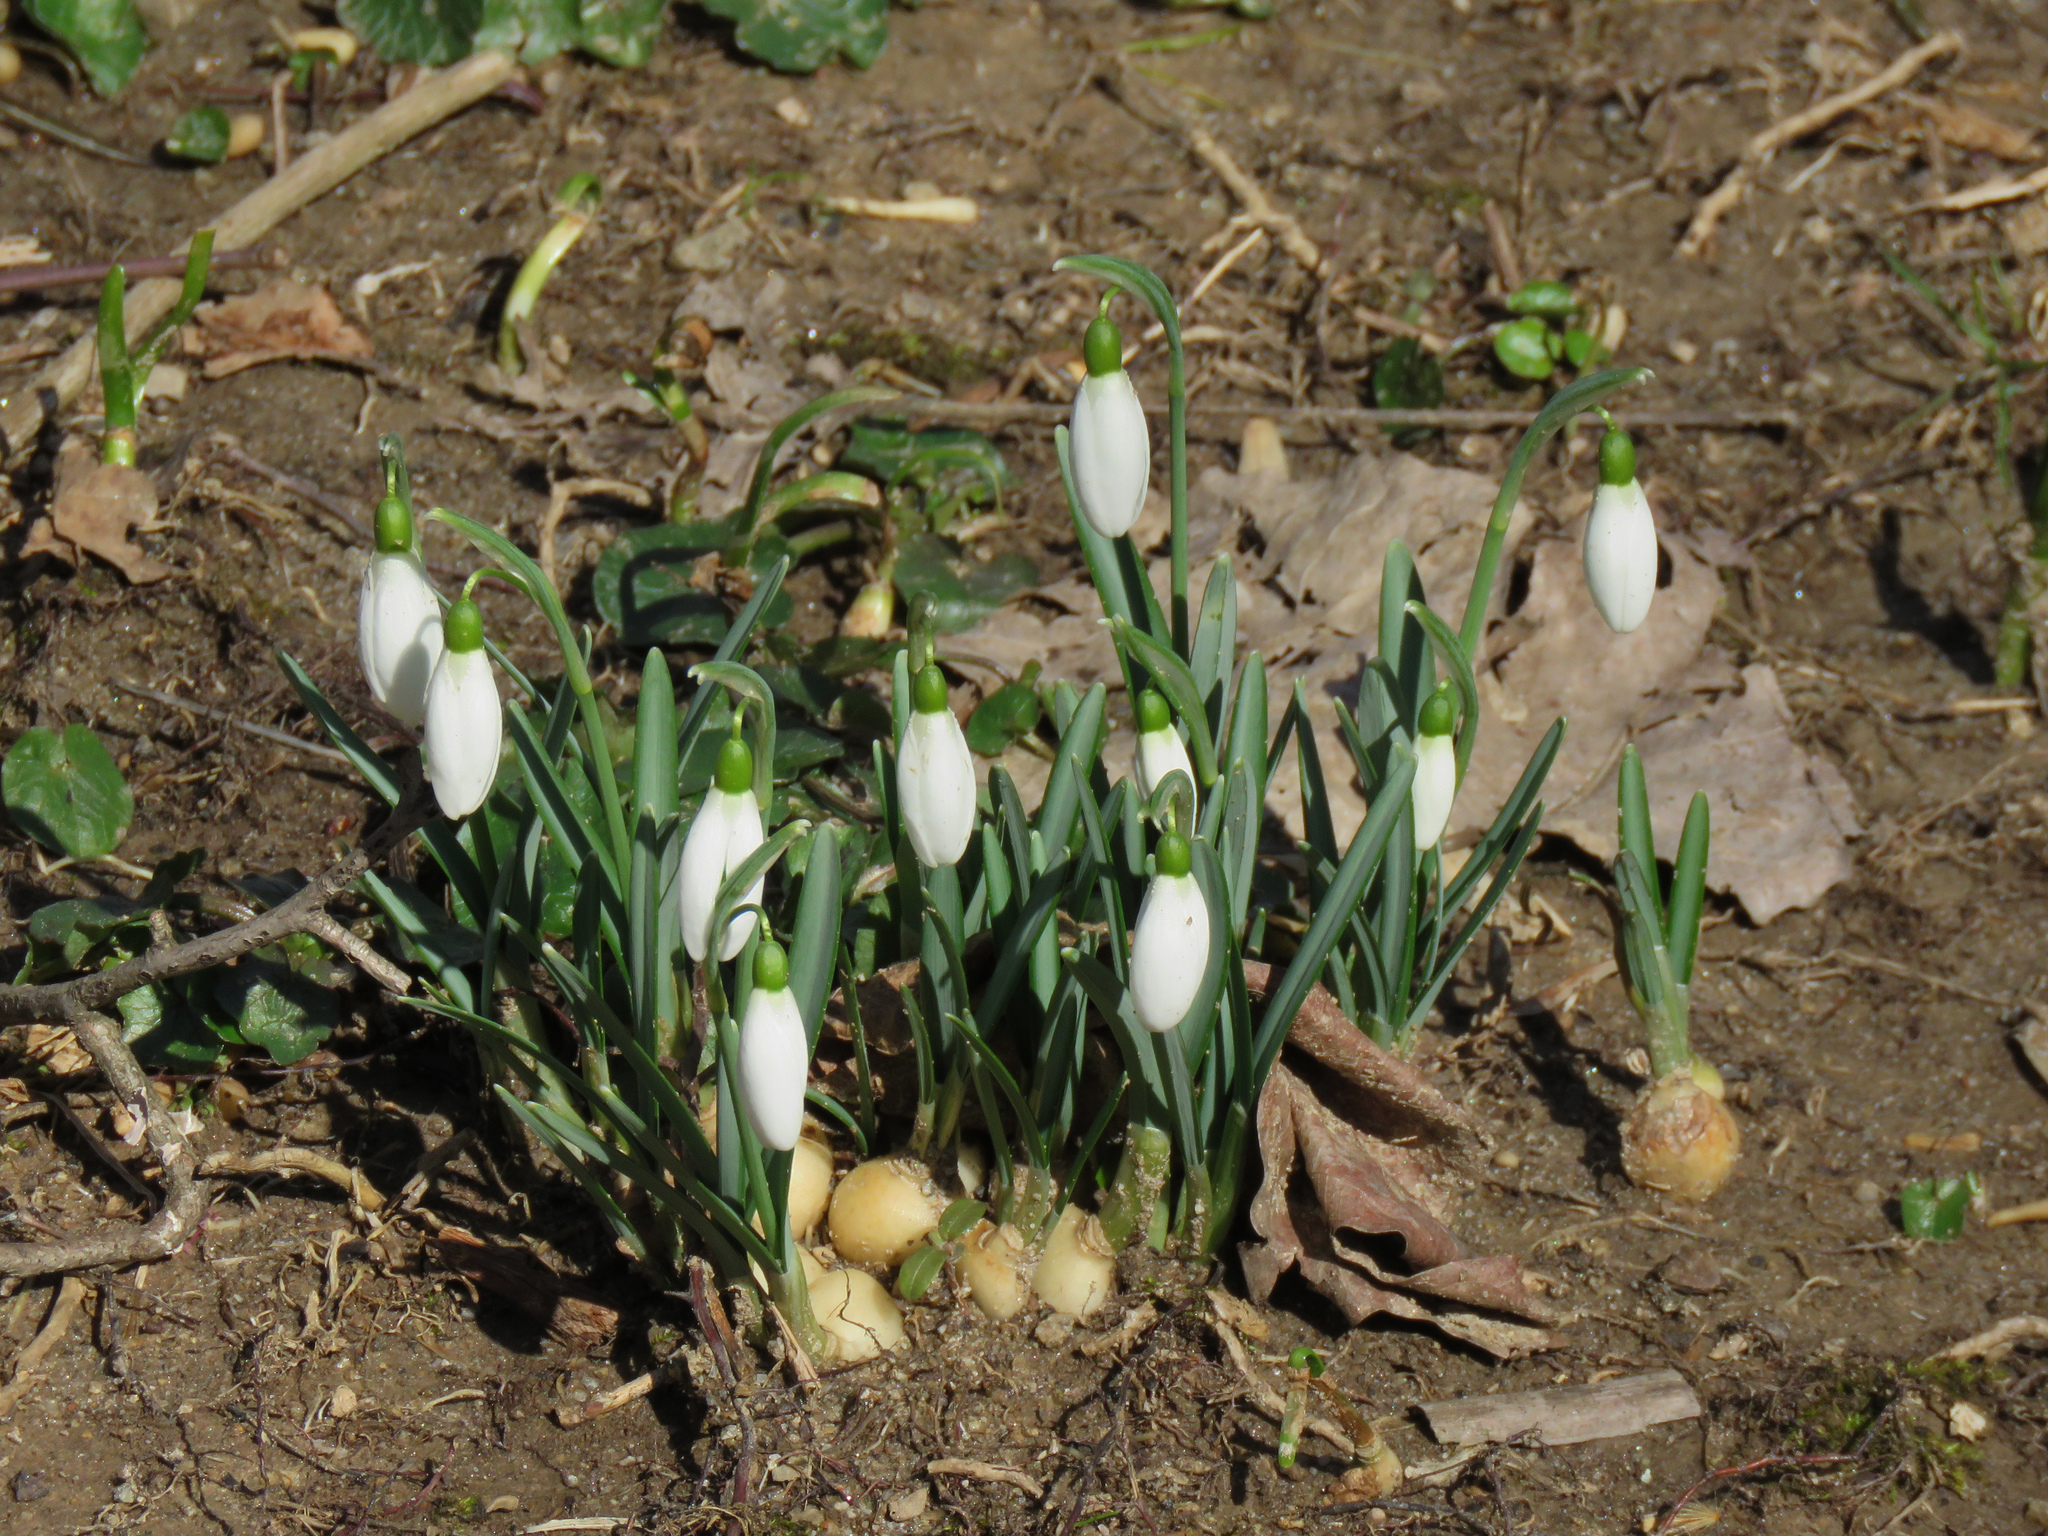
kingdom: Plantae
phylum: Tracheophyta
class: Liliopsida
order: Asparagales
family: Amaryllidaceae
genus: Galanthus
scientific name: Galanthus nivalis
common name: Snowdrop
